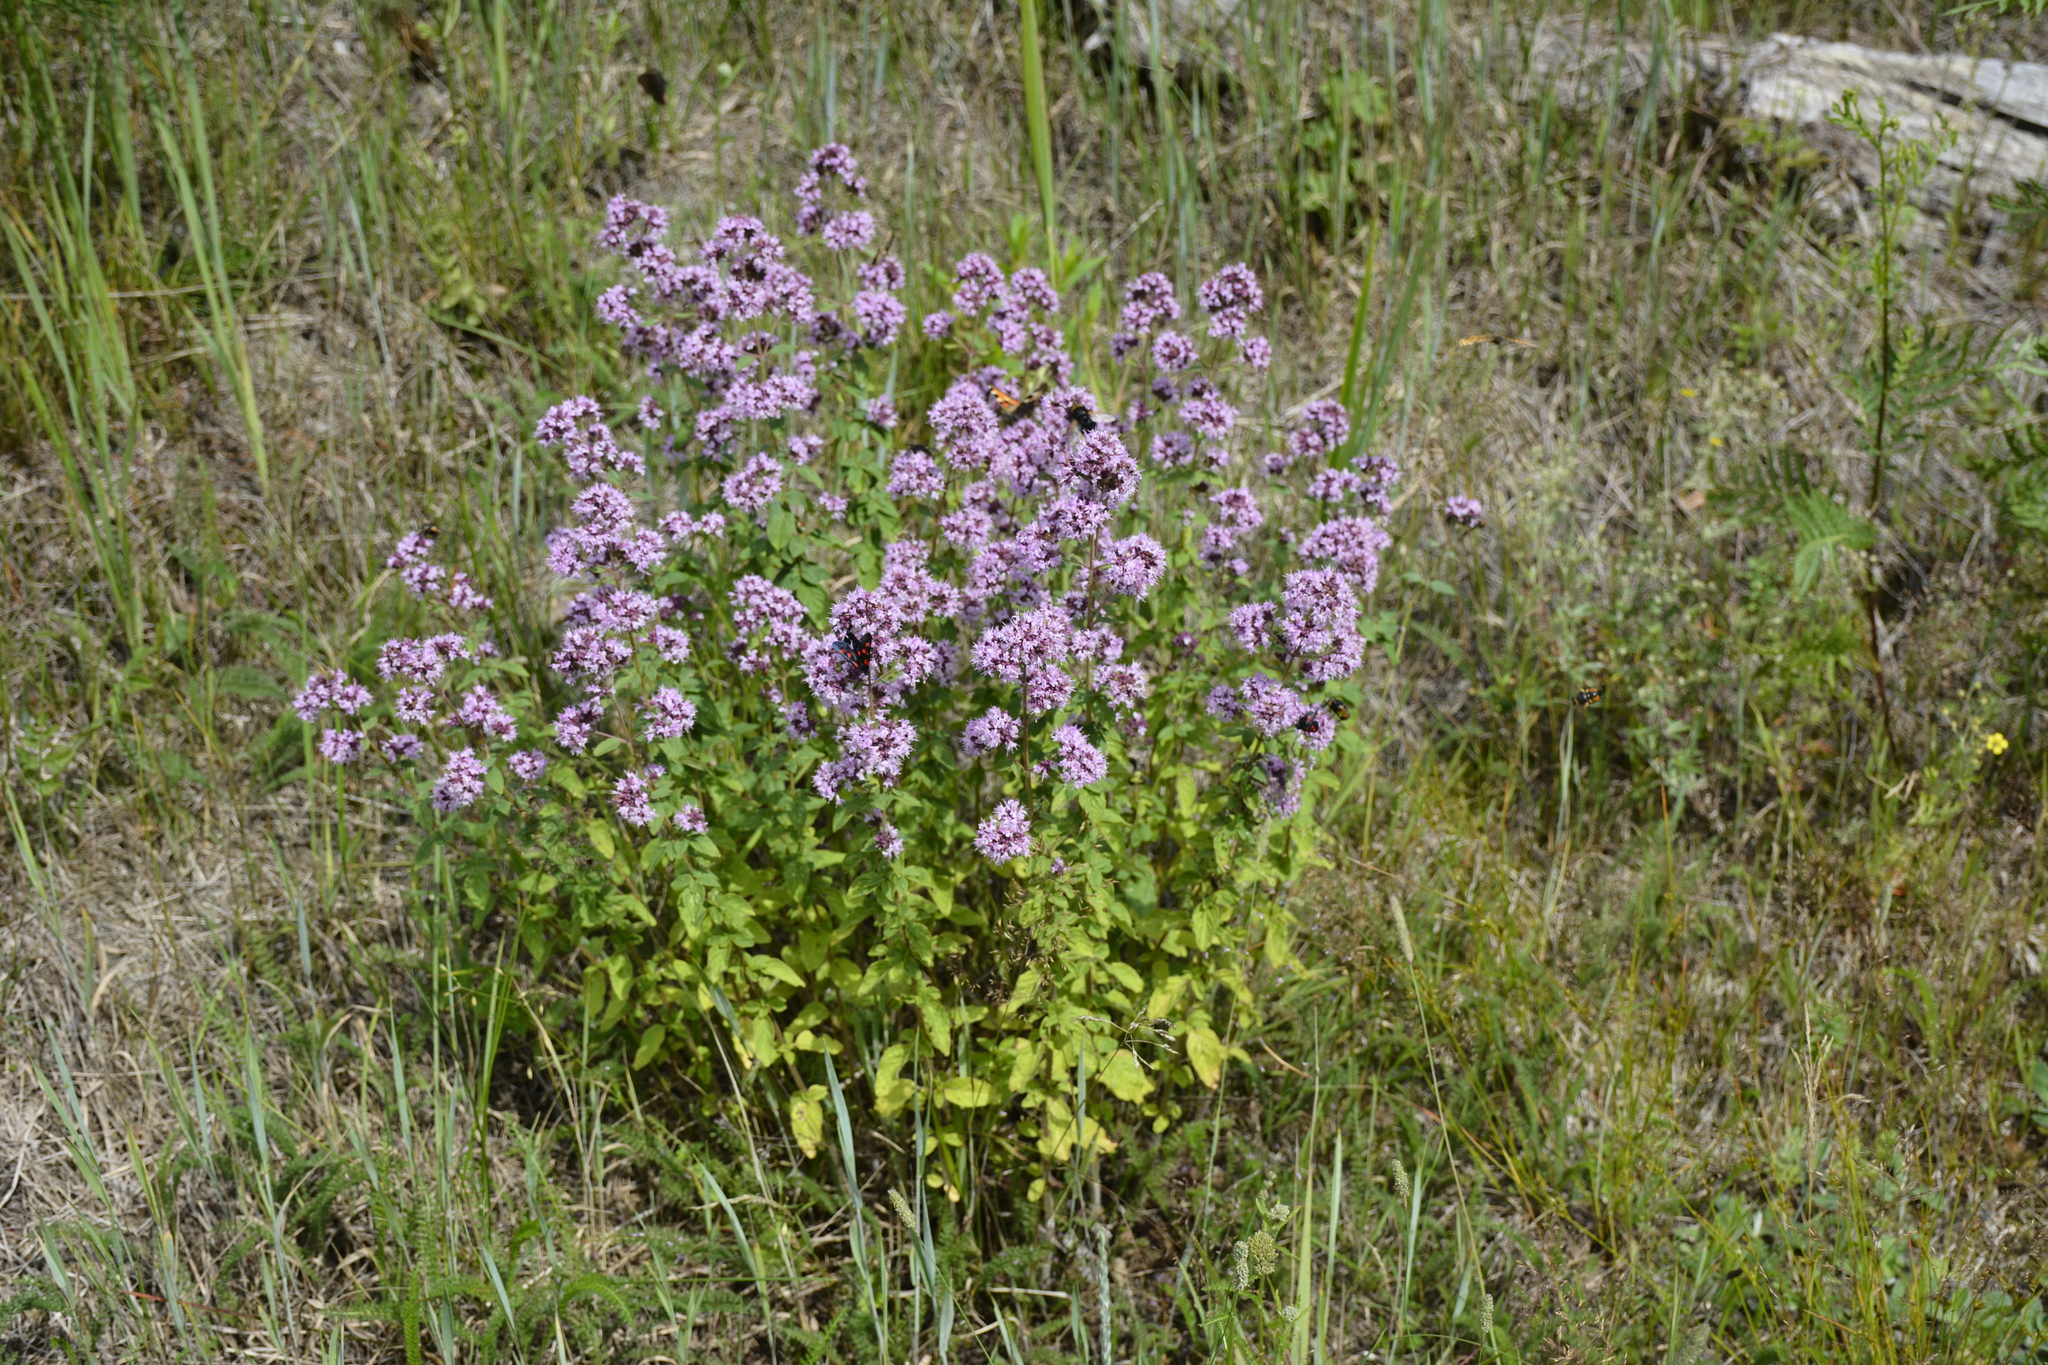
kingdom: Plantae
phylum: Tracheophyta
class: Magnoliopsida
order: Lamiales
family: Lamiaceae
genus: Origanum
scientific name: Origanum vulgare
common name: Wild marjoram
